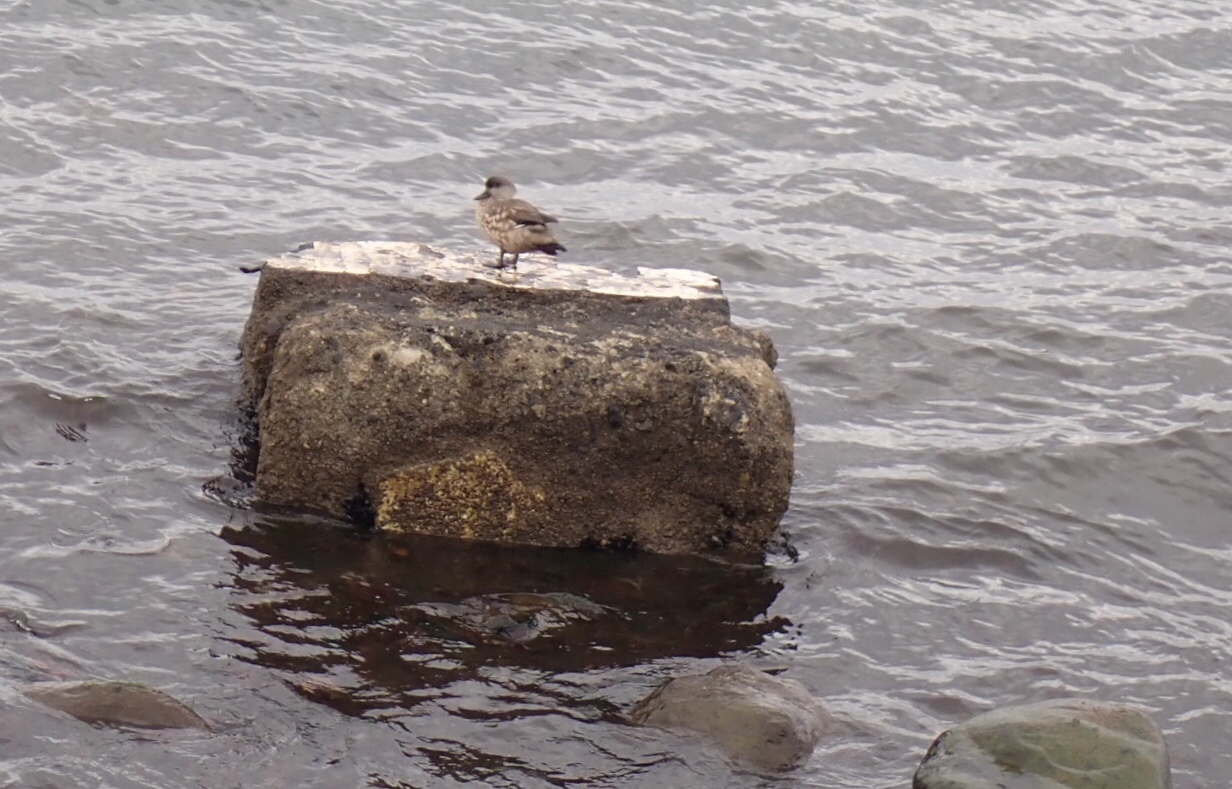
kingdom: Animalia
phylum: Chordata
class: Aves
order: Anseriformes
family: Anatidae
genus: Lophonetta
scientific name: Lophonetta specularioides
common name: Crested duck
